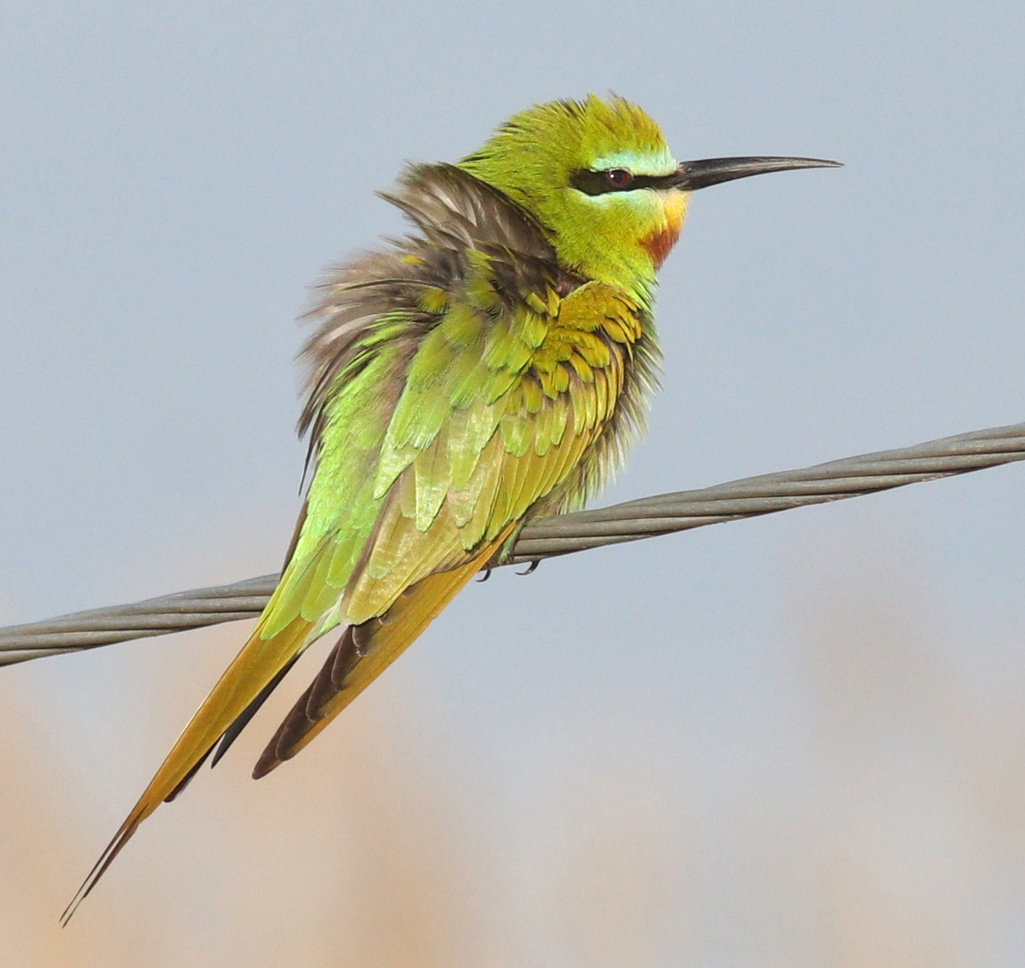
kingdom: Animalia
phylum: Chordata
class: Aves
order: Coraciiformes
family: Meropidae
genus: Merops
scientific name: Merops persicus
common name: Blue-cheeked bee-eater
